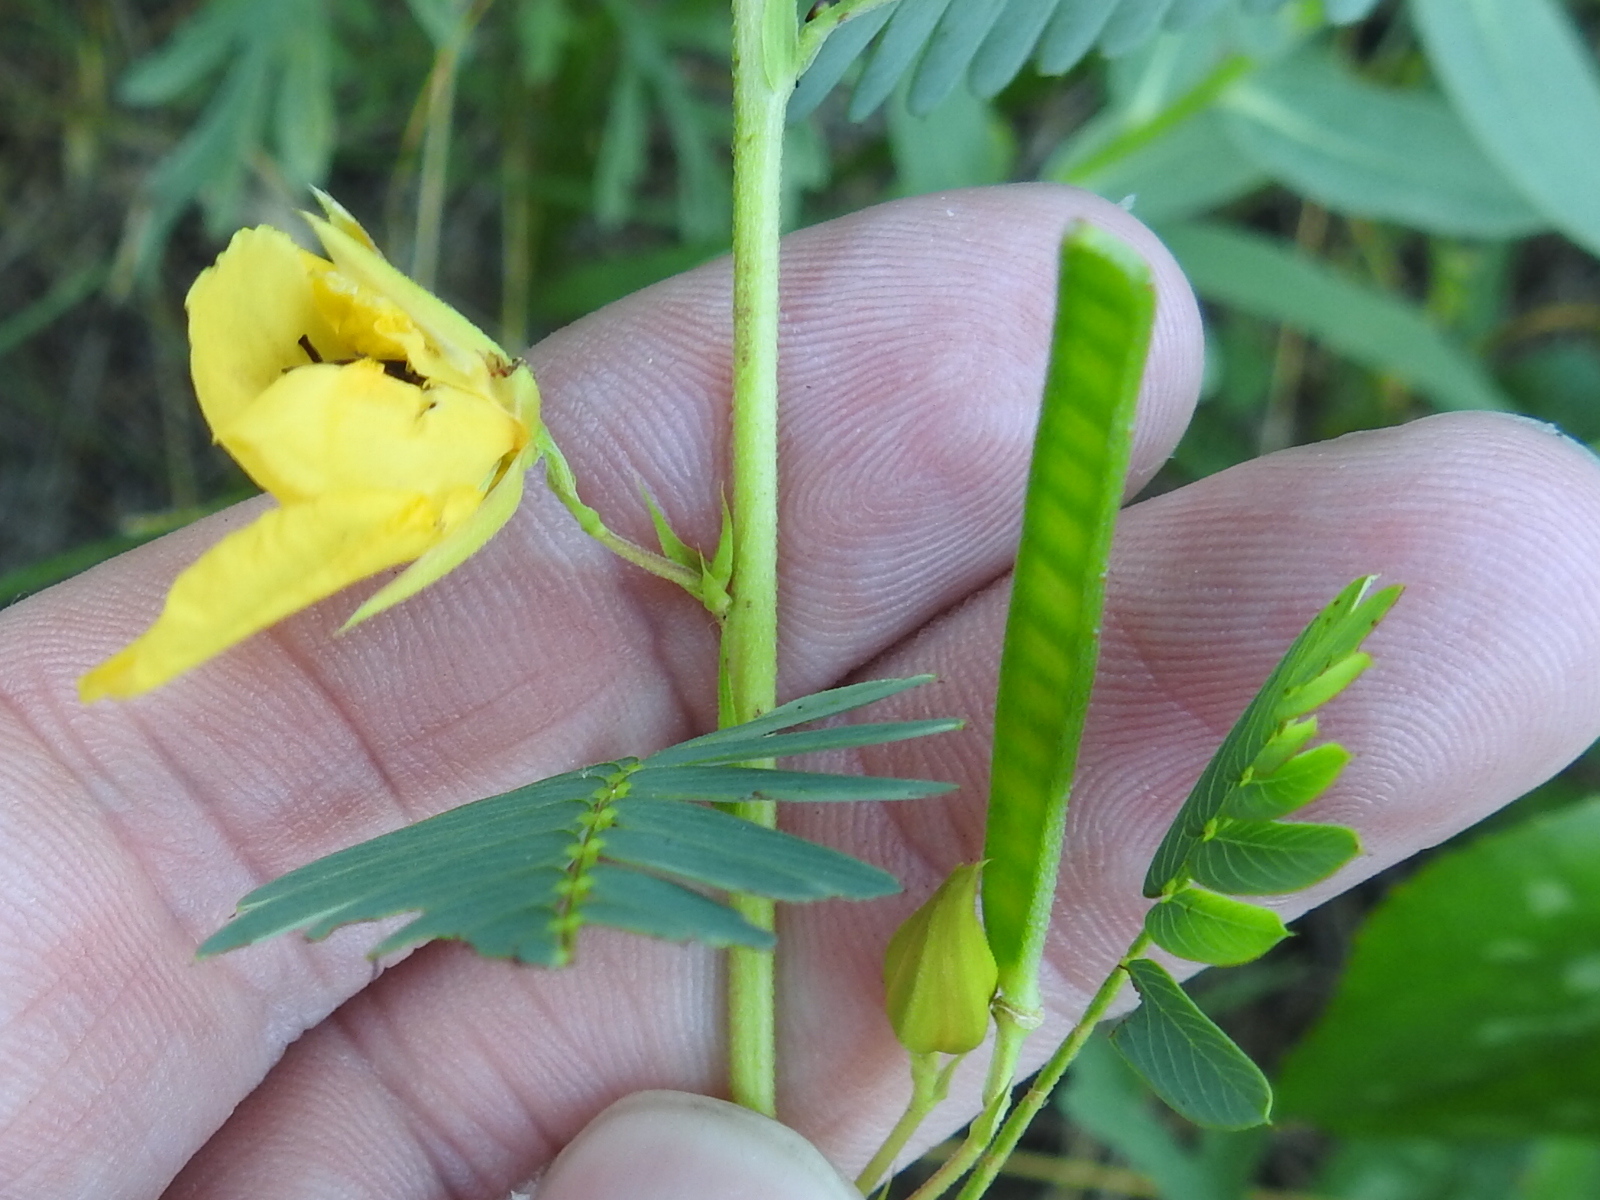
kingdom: Plantae
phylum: Tracheophyta
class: Magnoliopsida
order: Fabales
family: Fabaceae
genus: Chamaecrista
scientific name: Chamaecrista fasciculata
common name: Golden cassia
